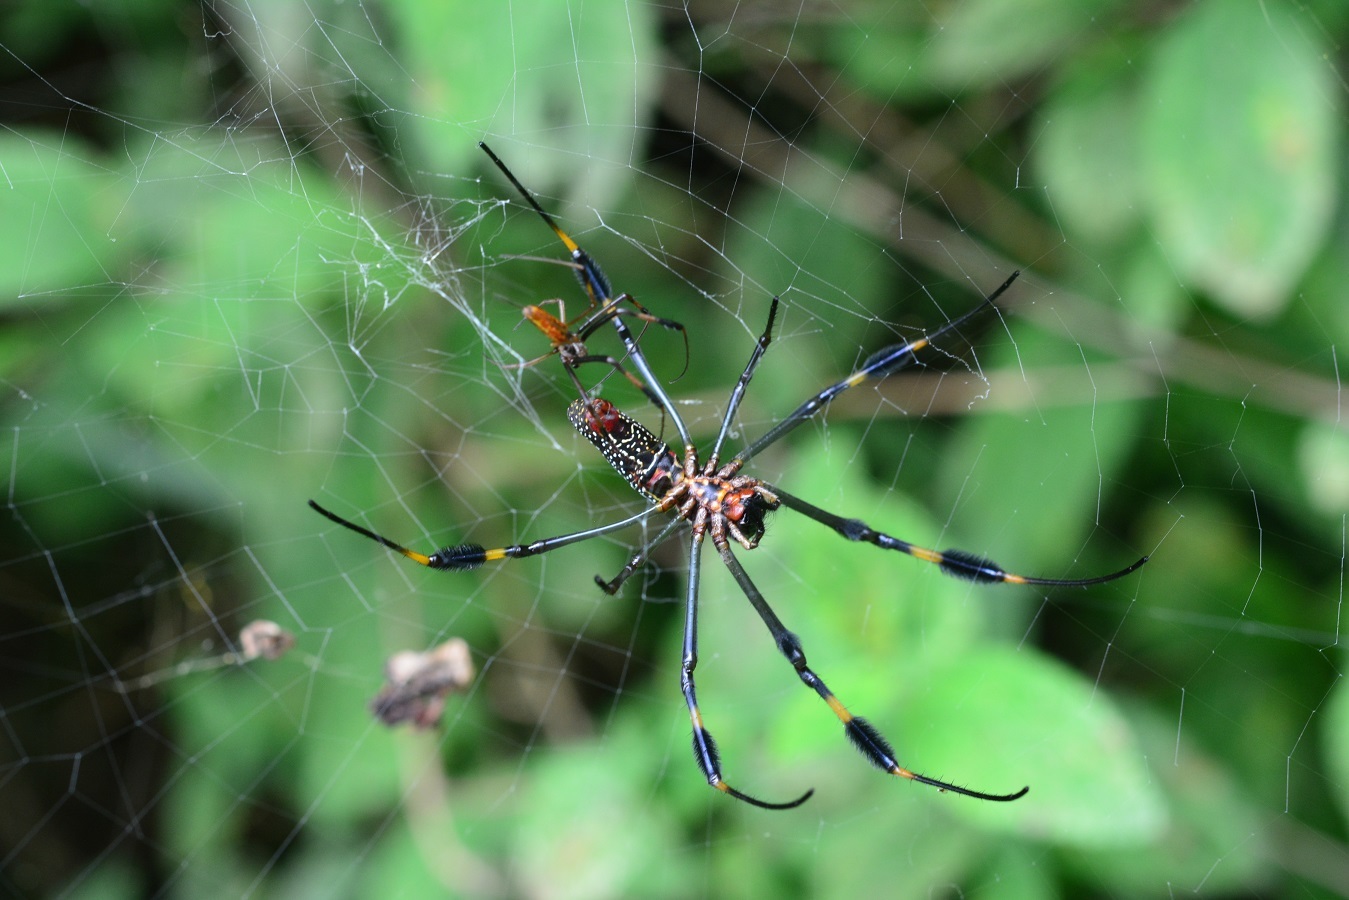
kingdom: Animalia
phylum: Arthropoda
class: Arachnida
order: Araneae
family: Araneidae
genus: Trichonephila
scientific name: Trichonephila clavipes
